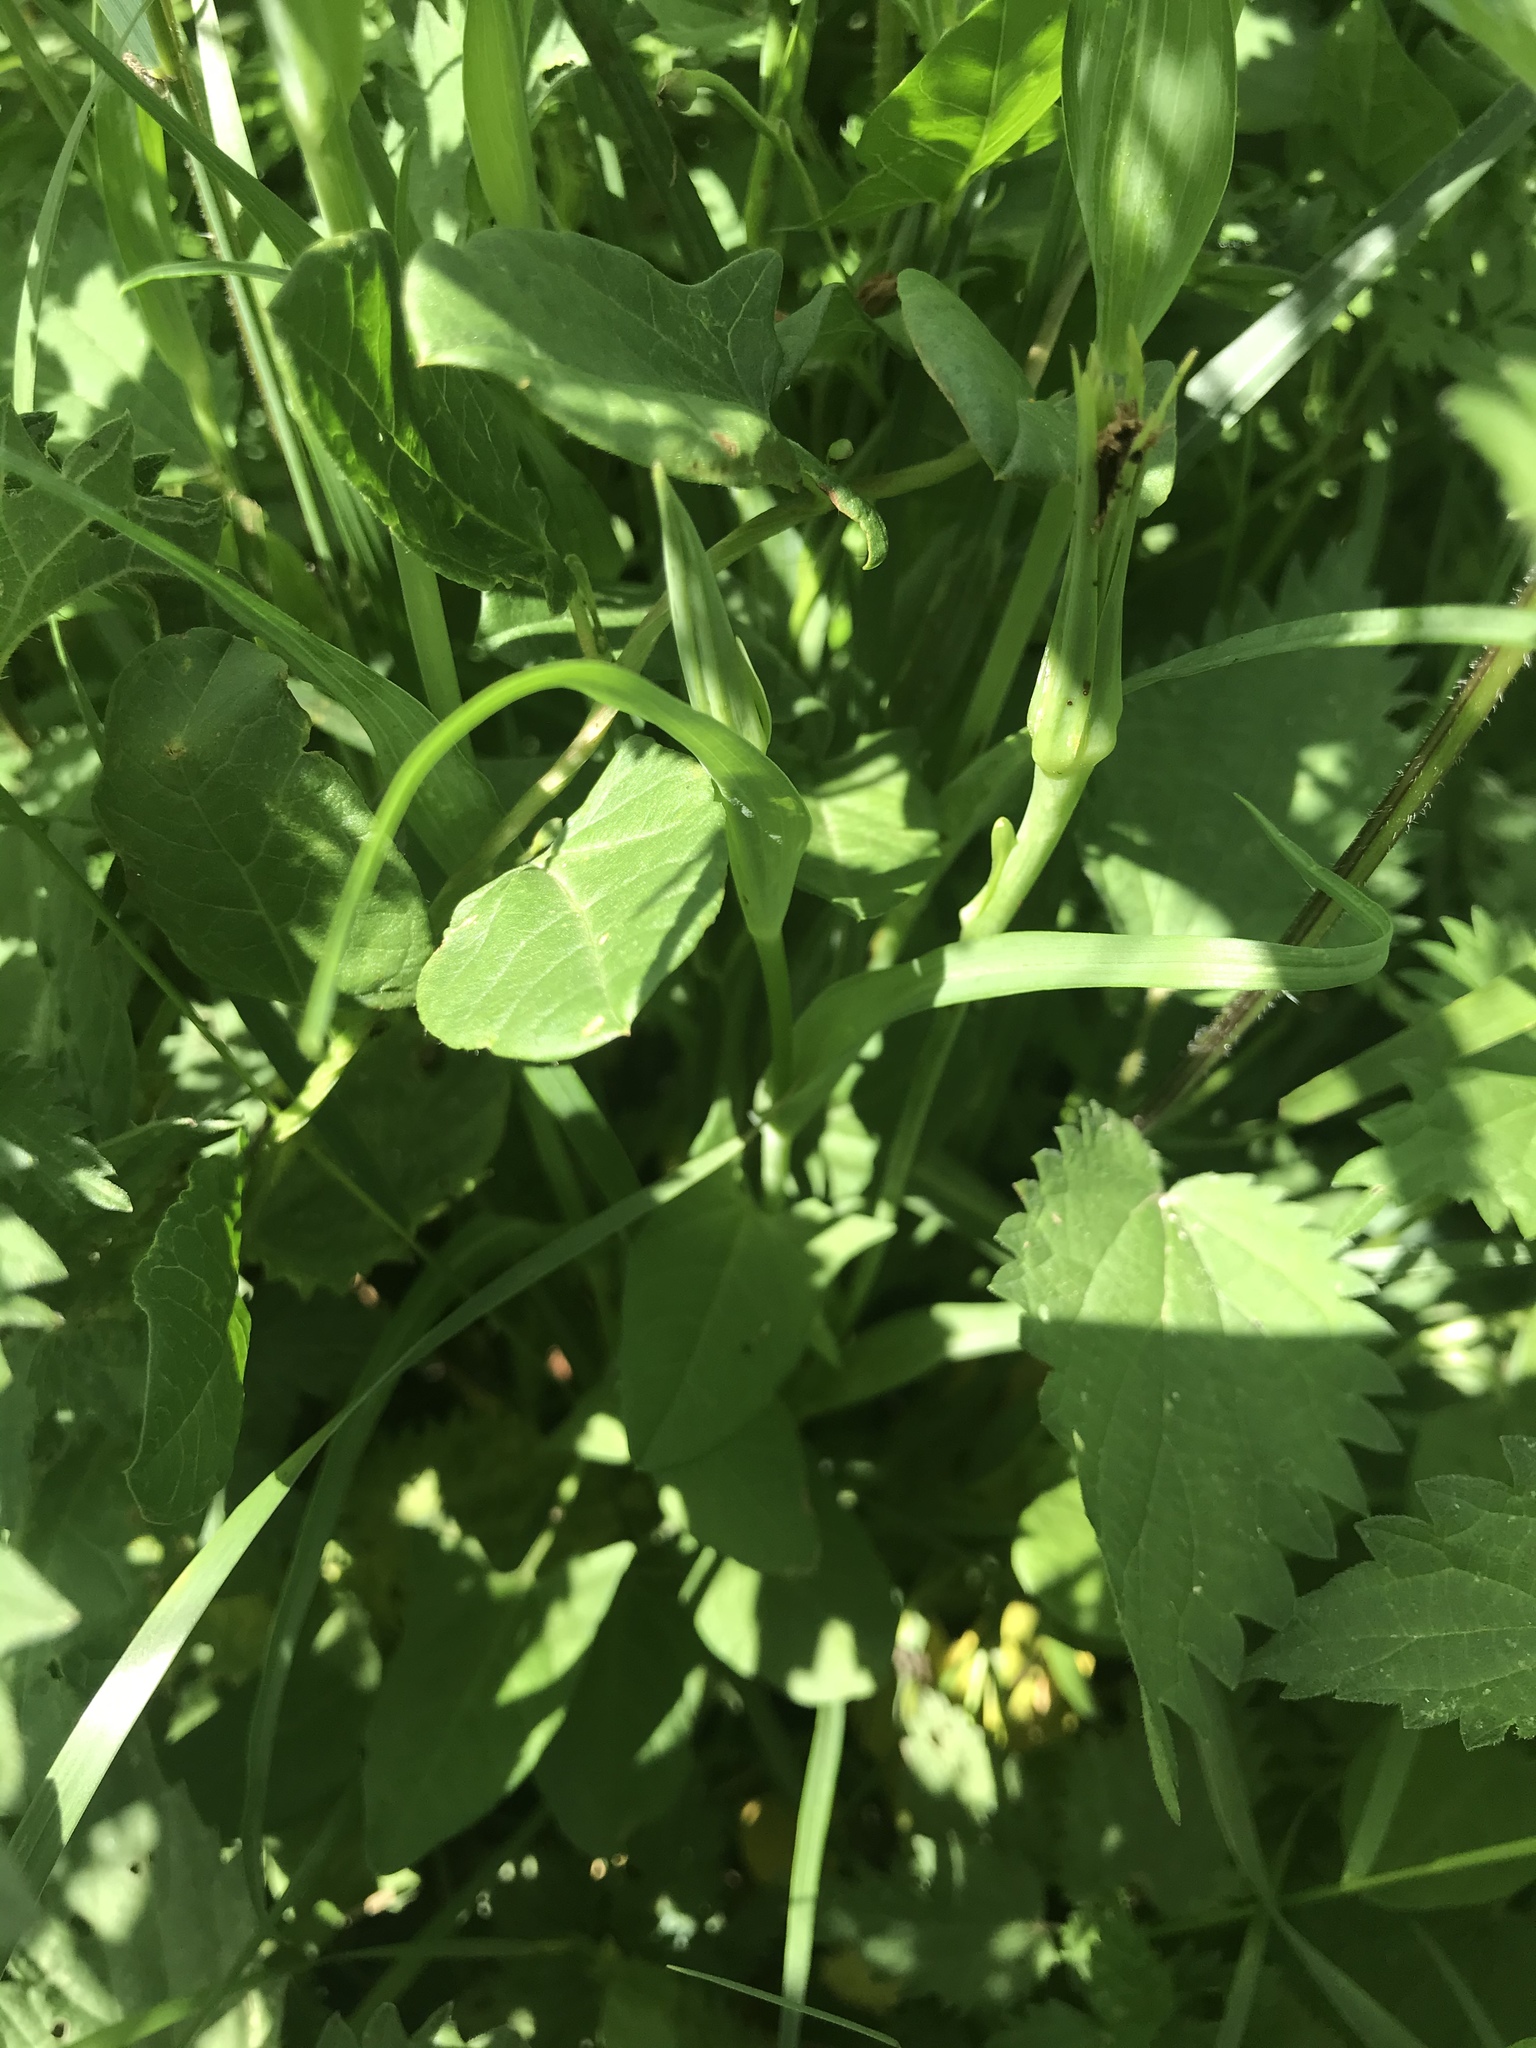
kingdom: Plantae
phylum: Tracheophyta
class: Magnoliopsida
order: Asterales
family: Asteraceae
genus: Tragopogon
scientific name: Tragopogon porrifolius
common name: Salsify
